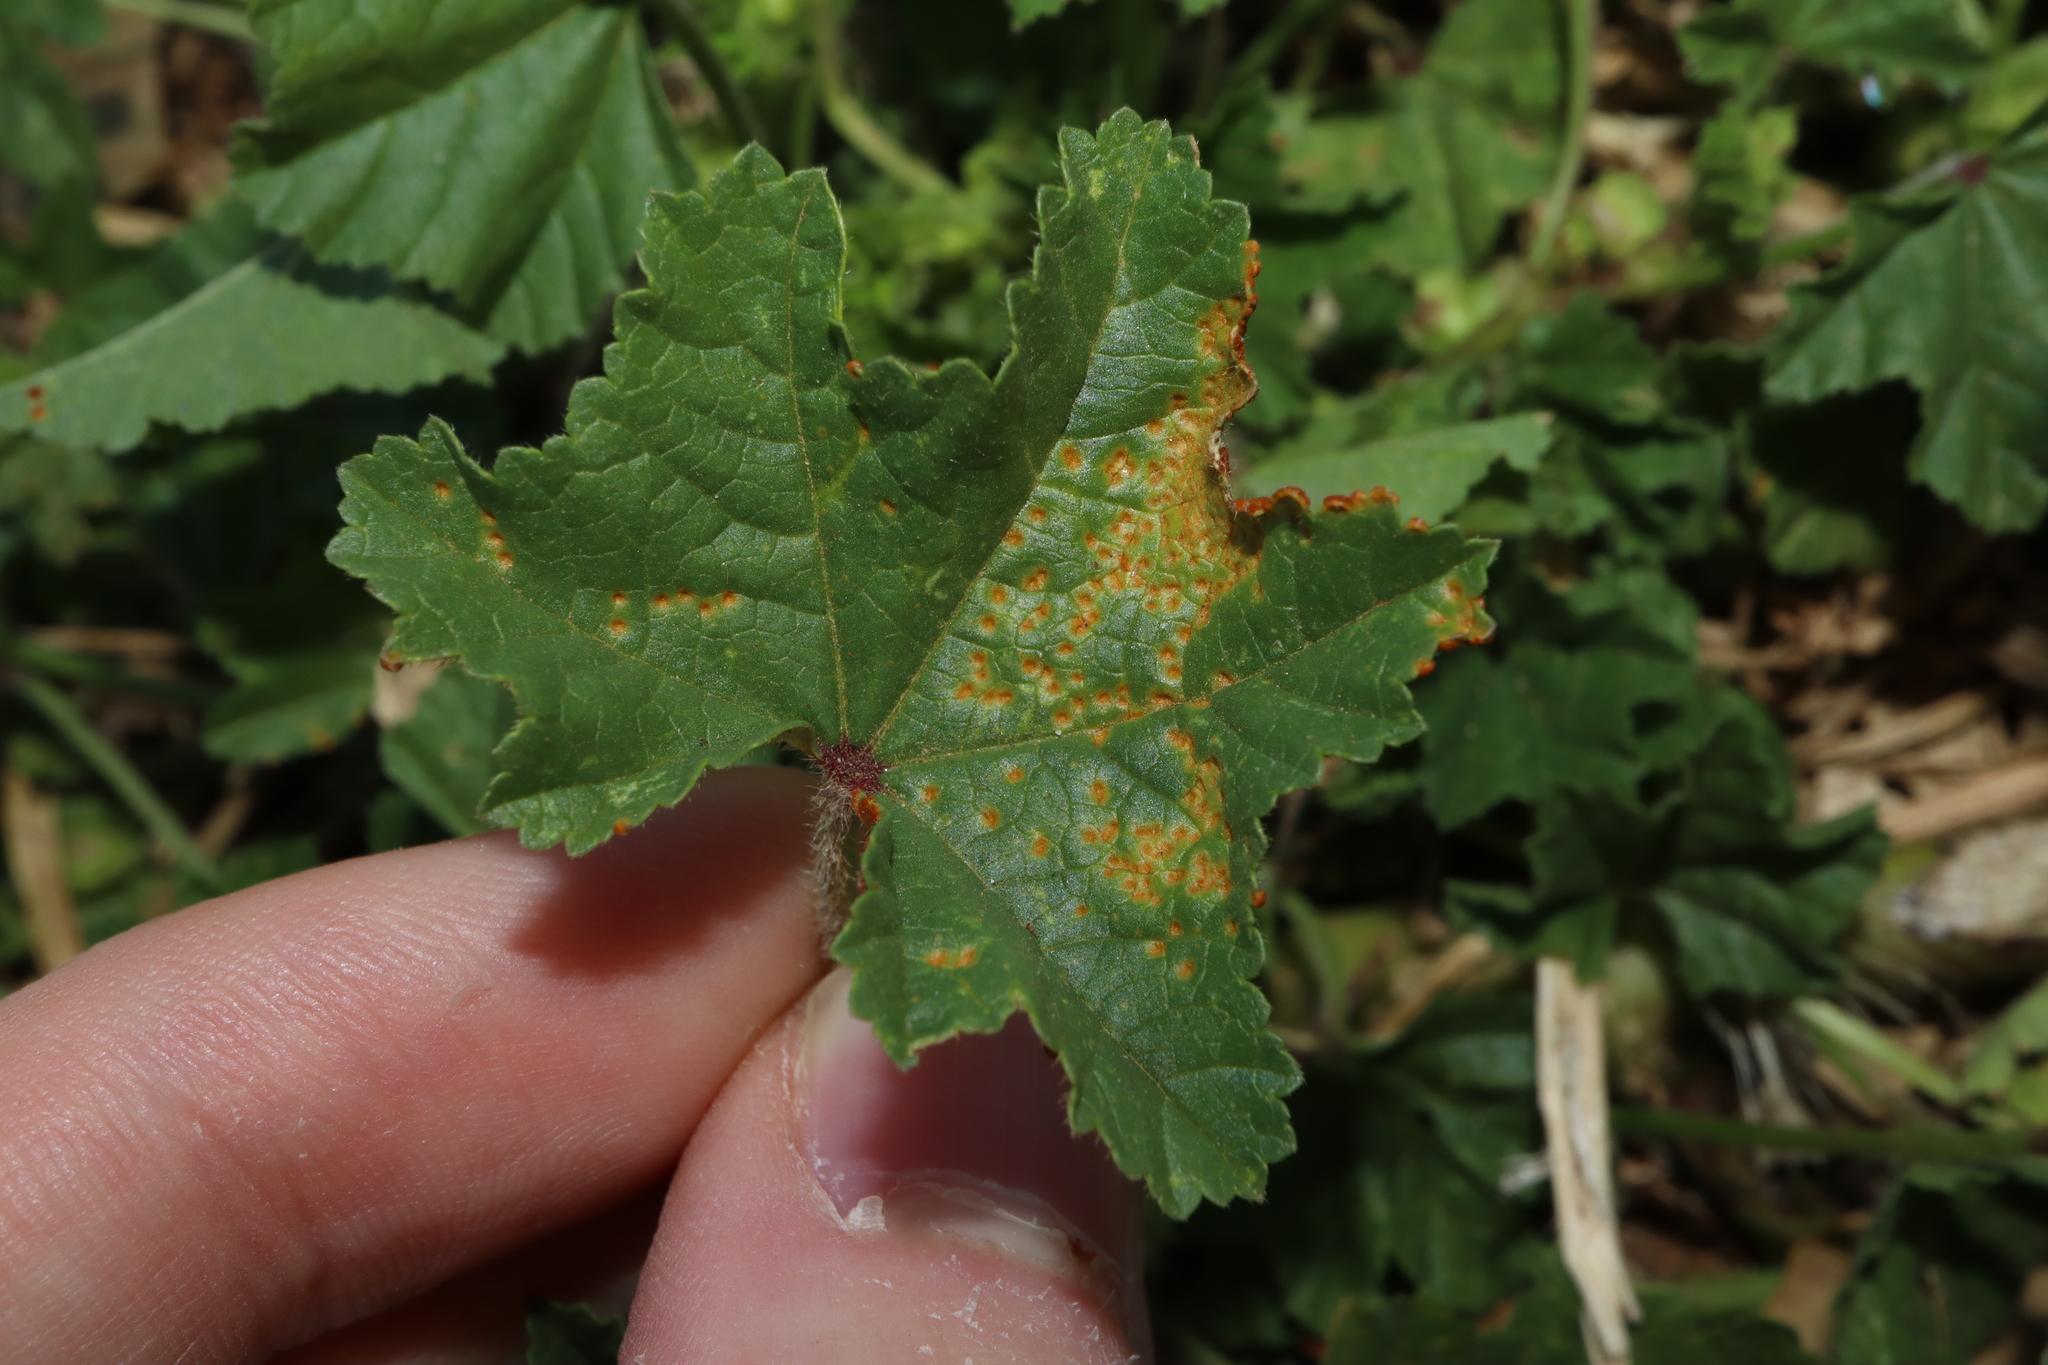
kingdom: Fungi
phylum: Basidiomycota
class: Pucciniomycetes
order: Pucciniales
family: Pucciniaceae
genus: Puccinia
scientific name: Puccinia malvacearum
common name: Hollyhock rust
